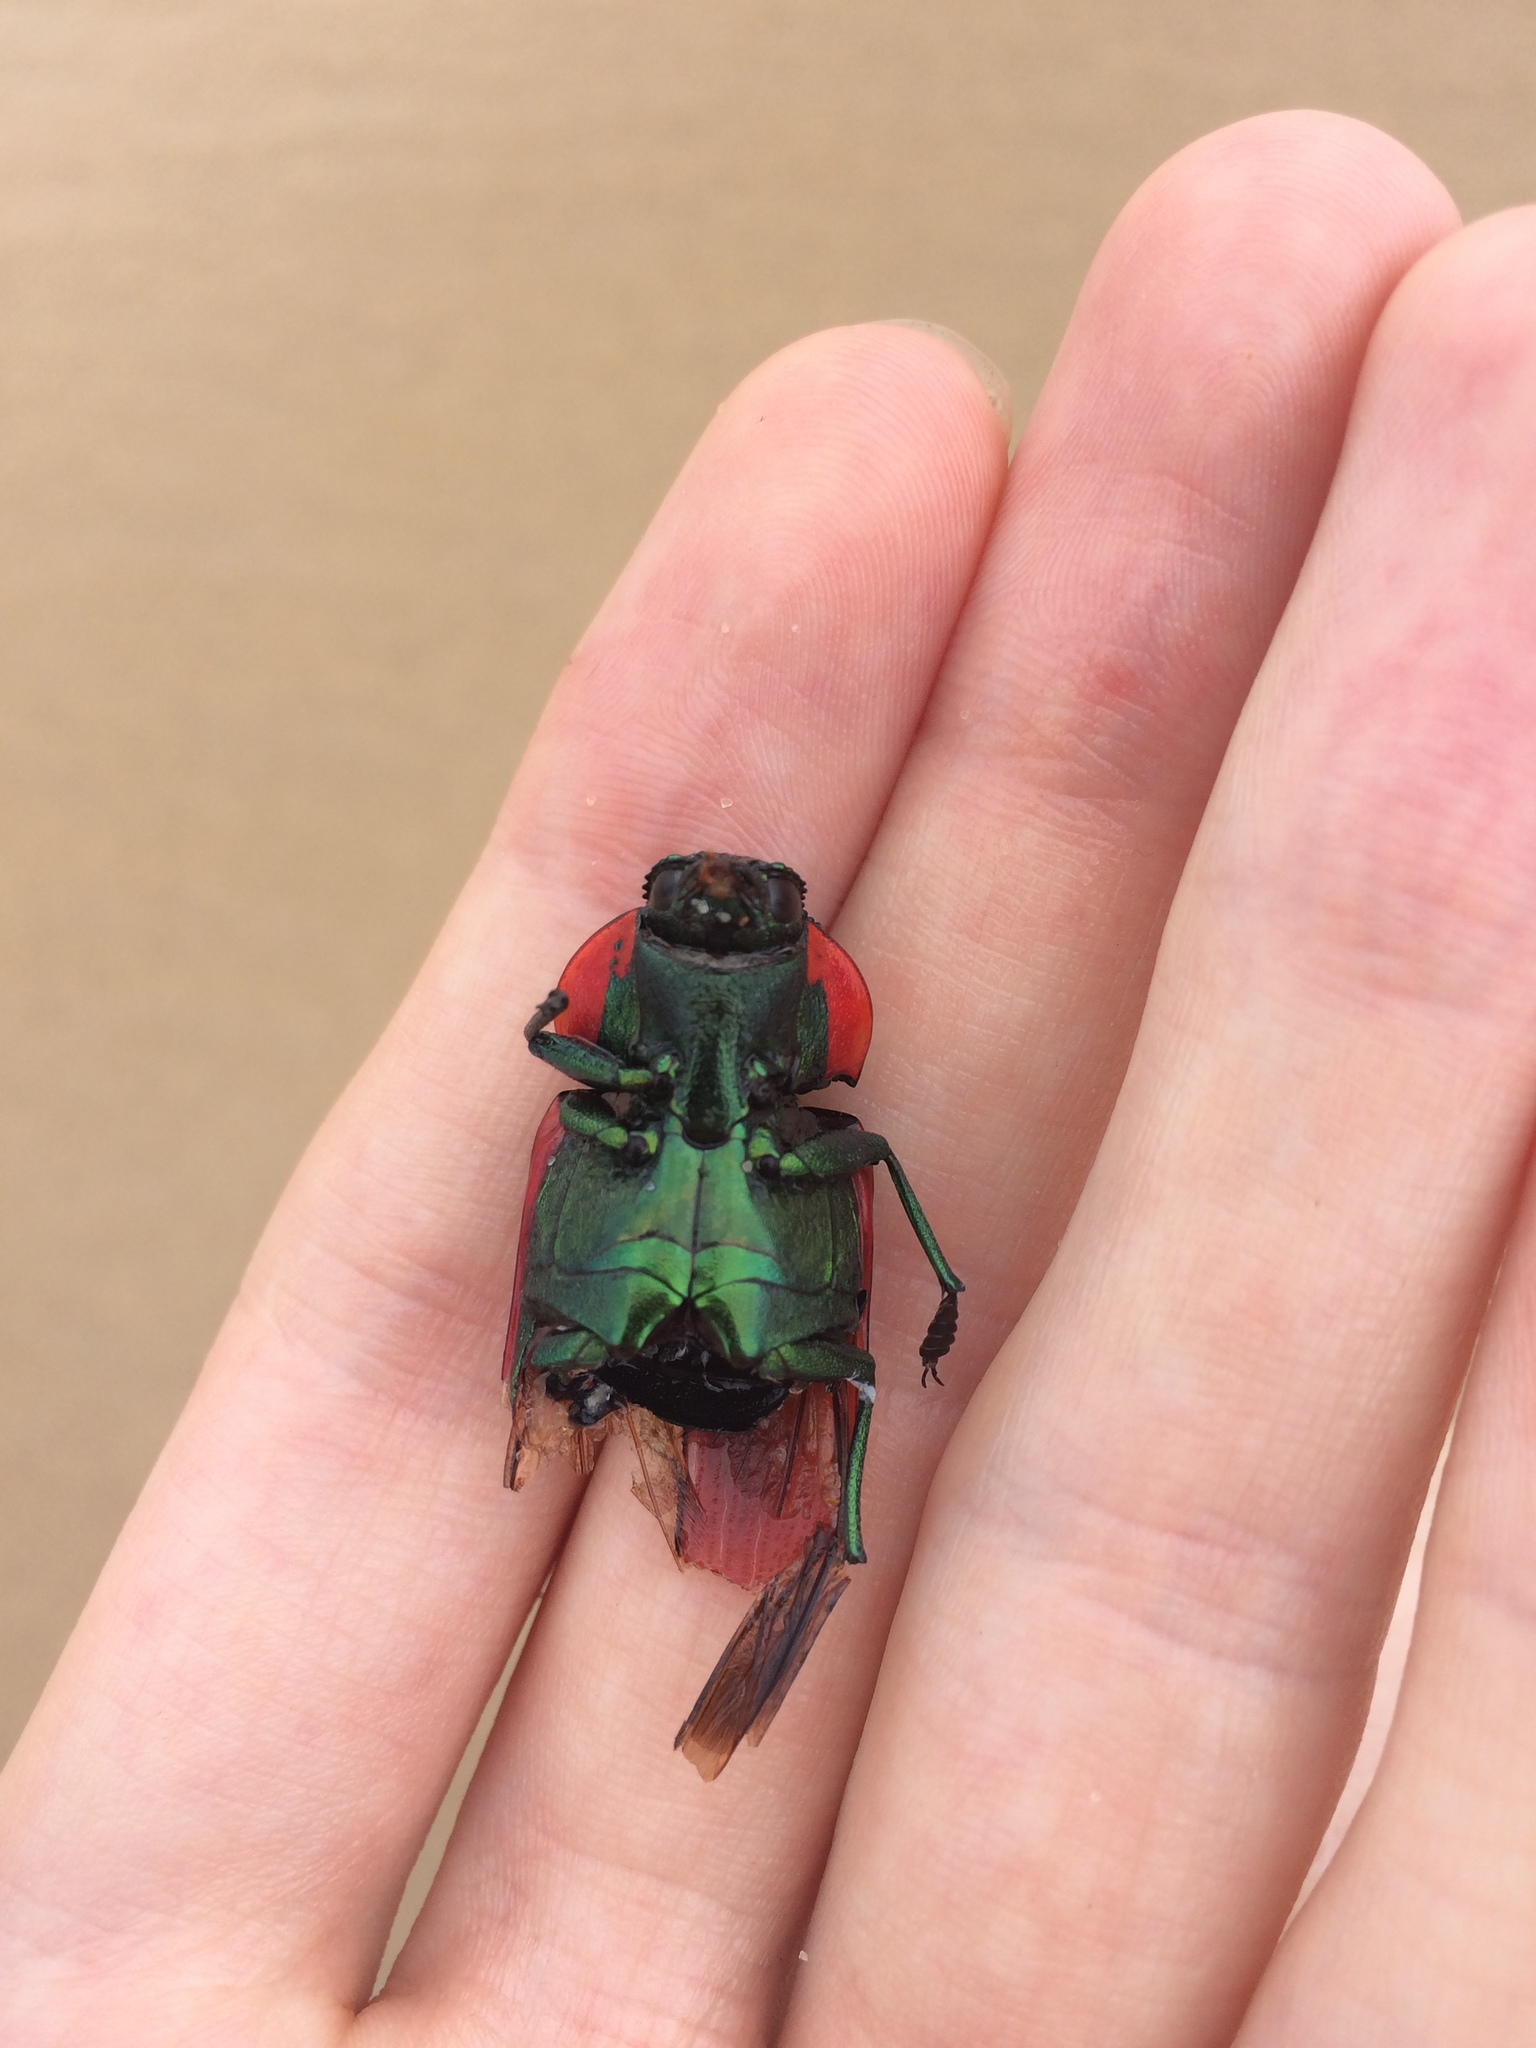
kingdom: Animalia
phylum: Arthropoda
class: Insecta
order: Coleoptera
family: Buprestidae
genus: Temognatha
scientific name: Temognatha variabilis
